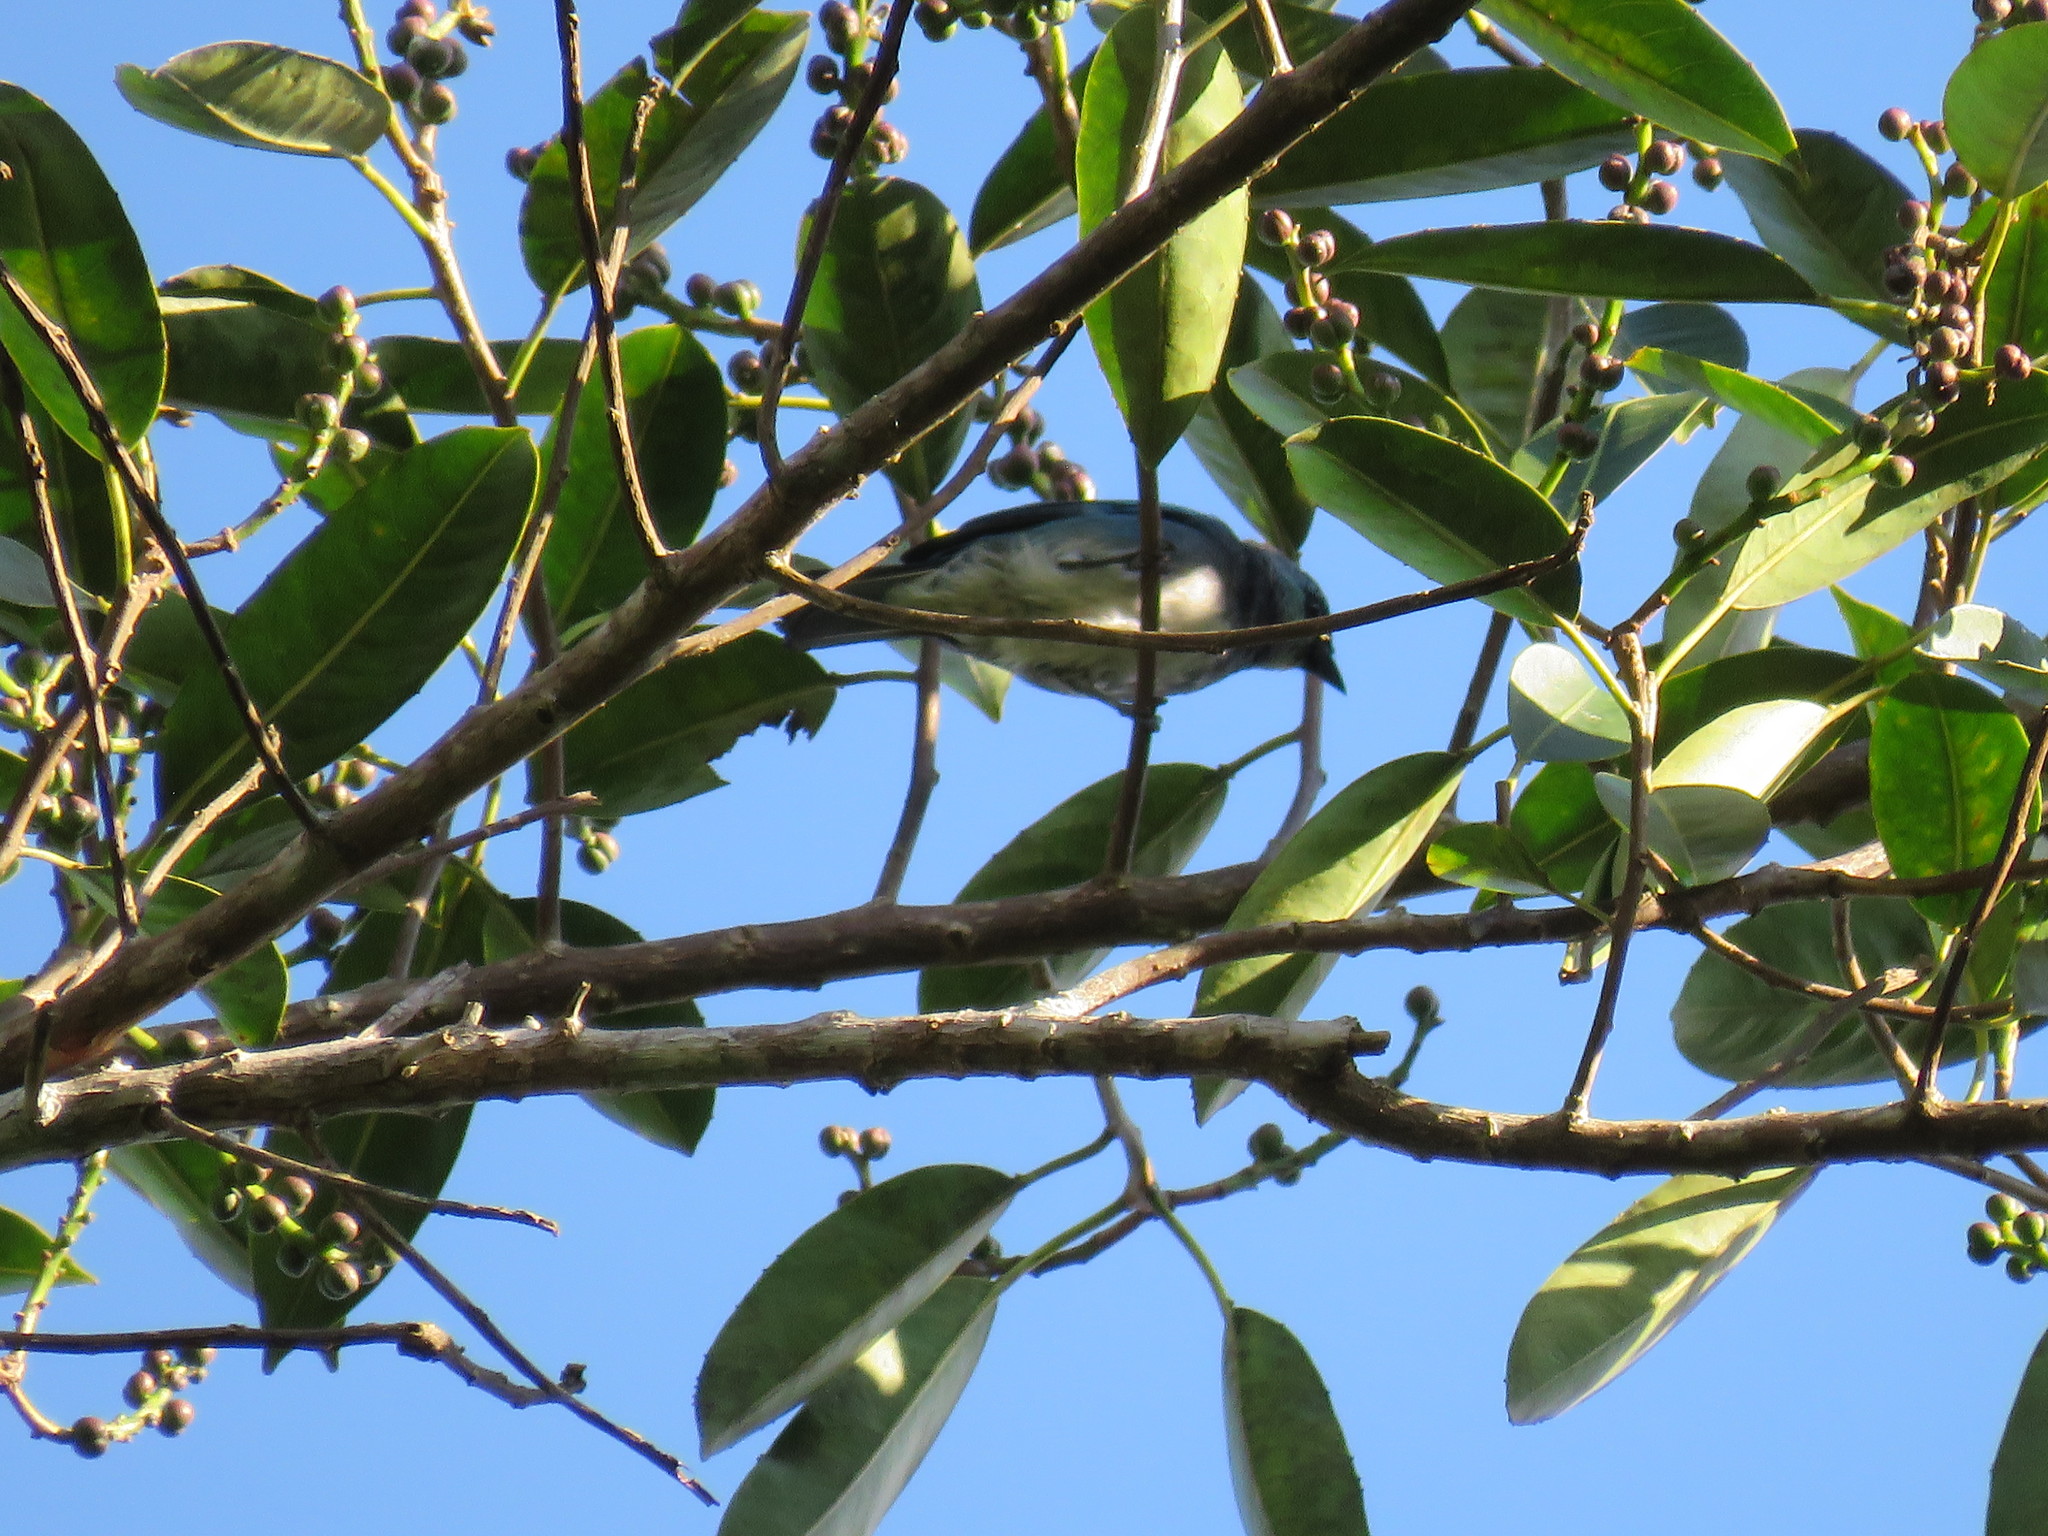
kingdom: Animalia
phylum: Chordata
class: Aves
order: Passeriformes
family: Thraupidae
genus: Stilpnia
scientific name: Stilpnia nigrocincta
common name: Masked tanager
